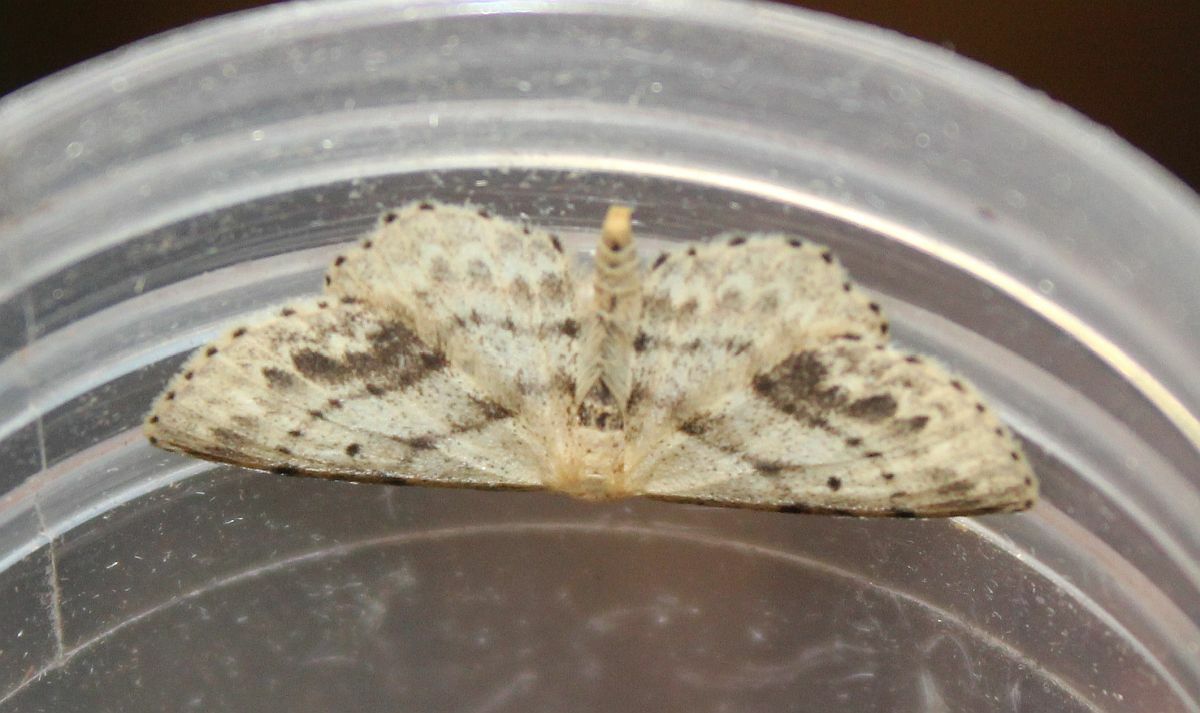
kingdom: Animalia
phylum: Arthropoda
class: Insecta
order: Lepidoptera
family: Geometridae
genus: Idaea
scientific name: Idaea dimidiata
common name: Single-dotted wave
